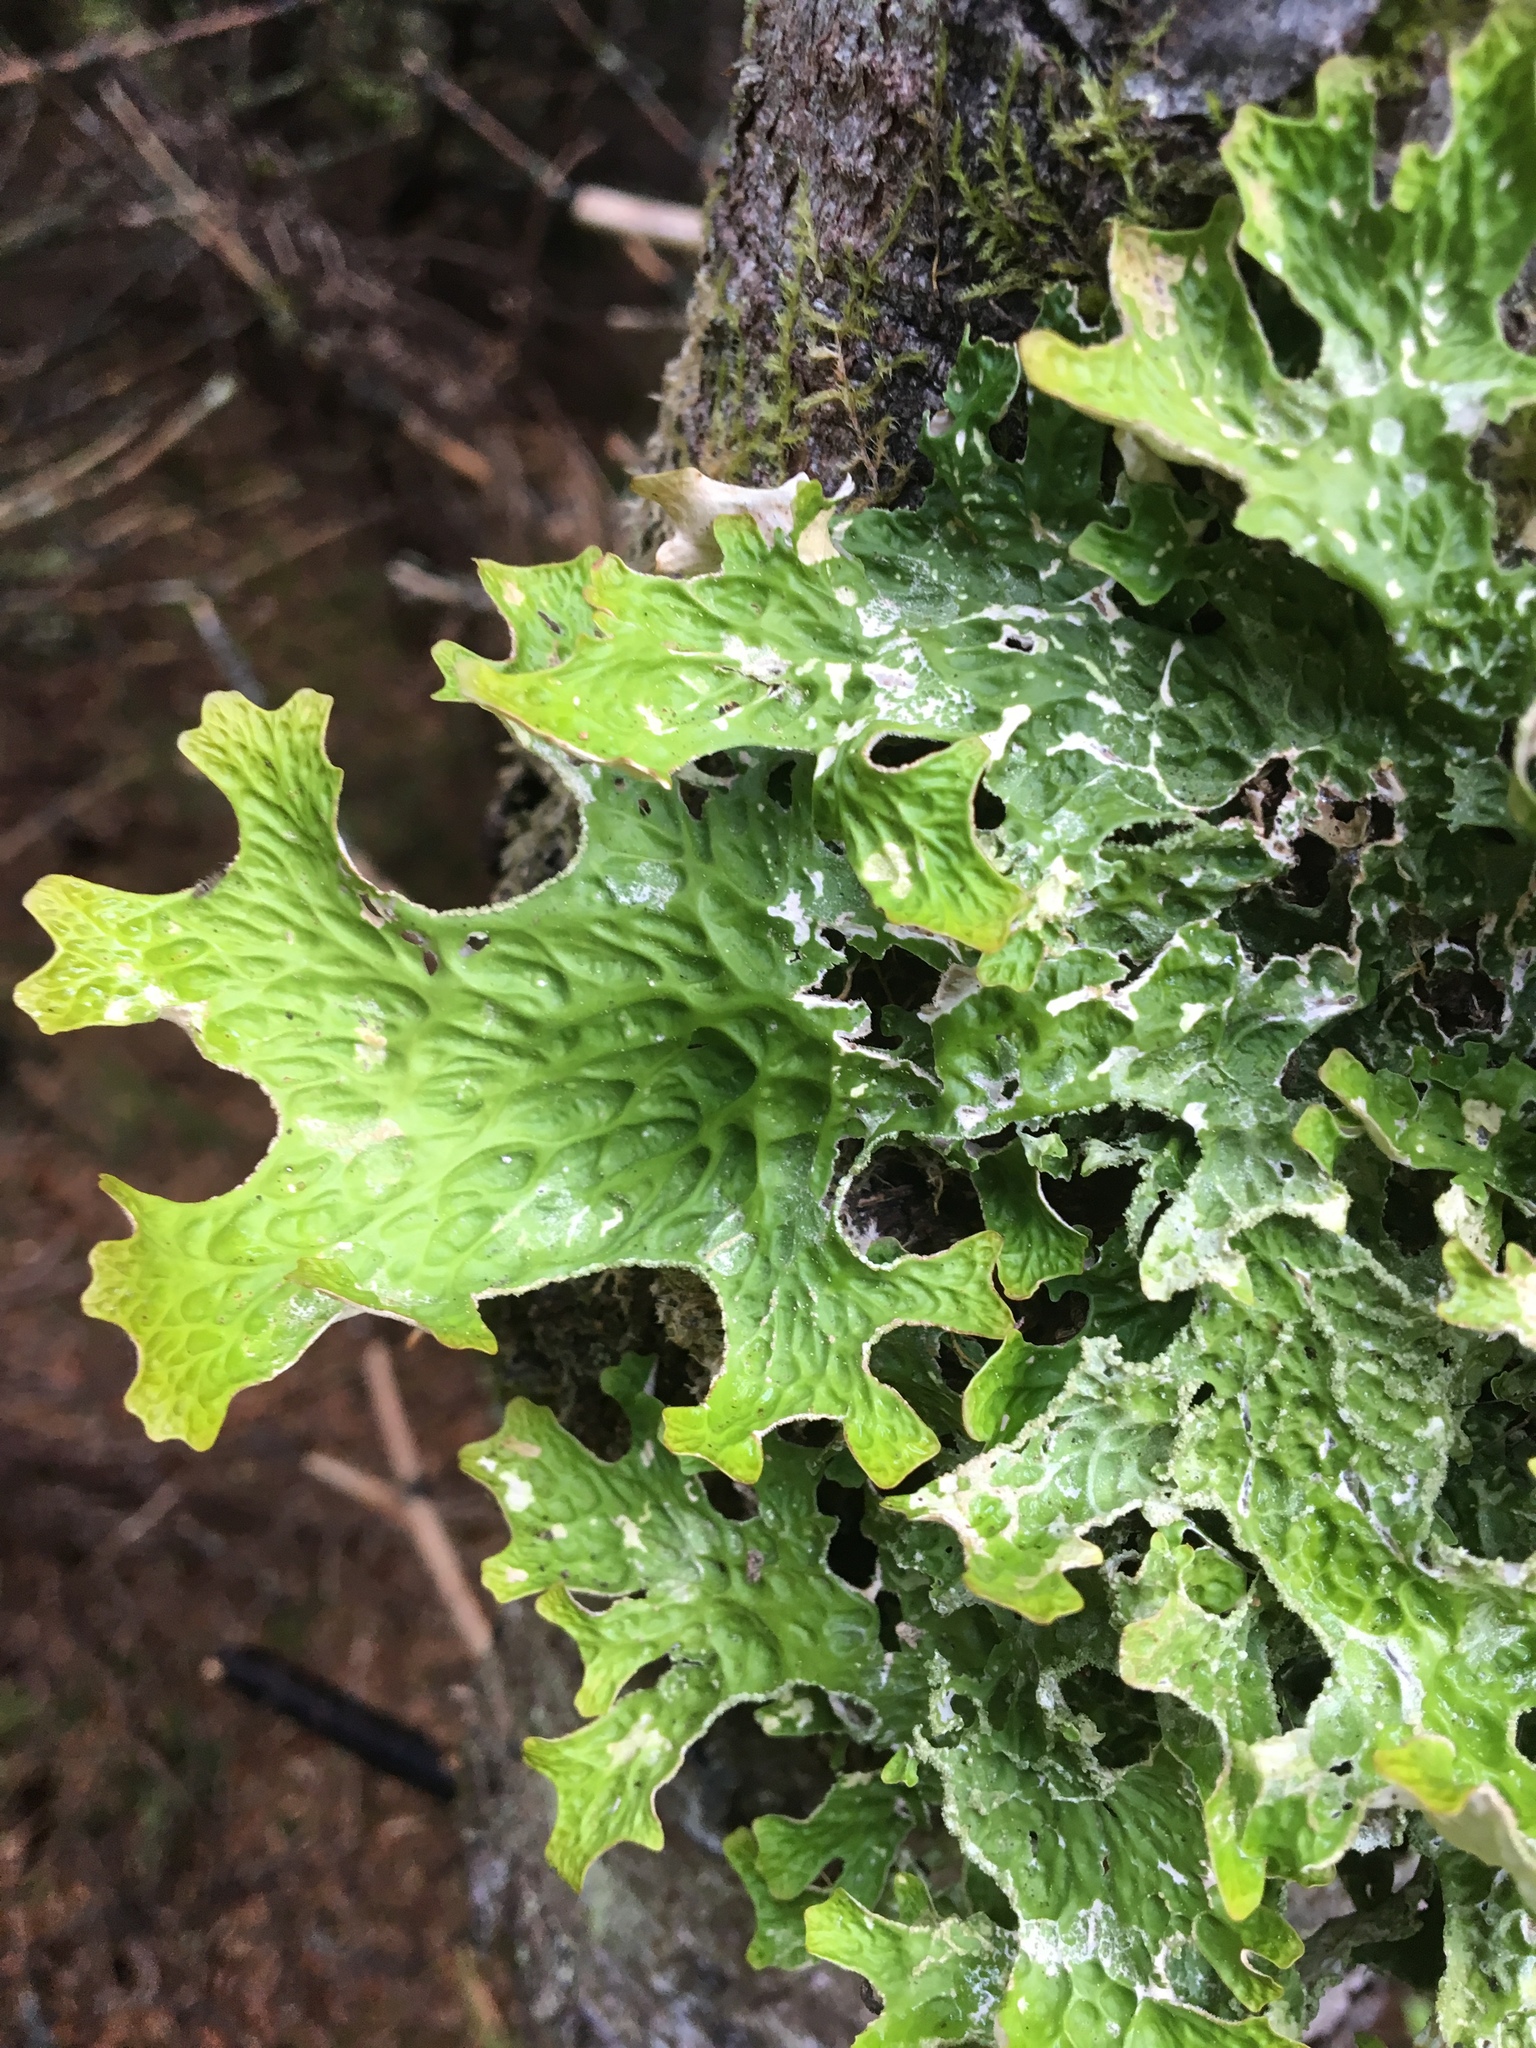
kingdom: Fungi
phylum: Ascomycota
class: Lecanoromycetes
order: Peltigerales
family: Lobariaceae
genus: Lobaria
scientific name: Lobaria pulmonaria
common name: Lungwort
